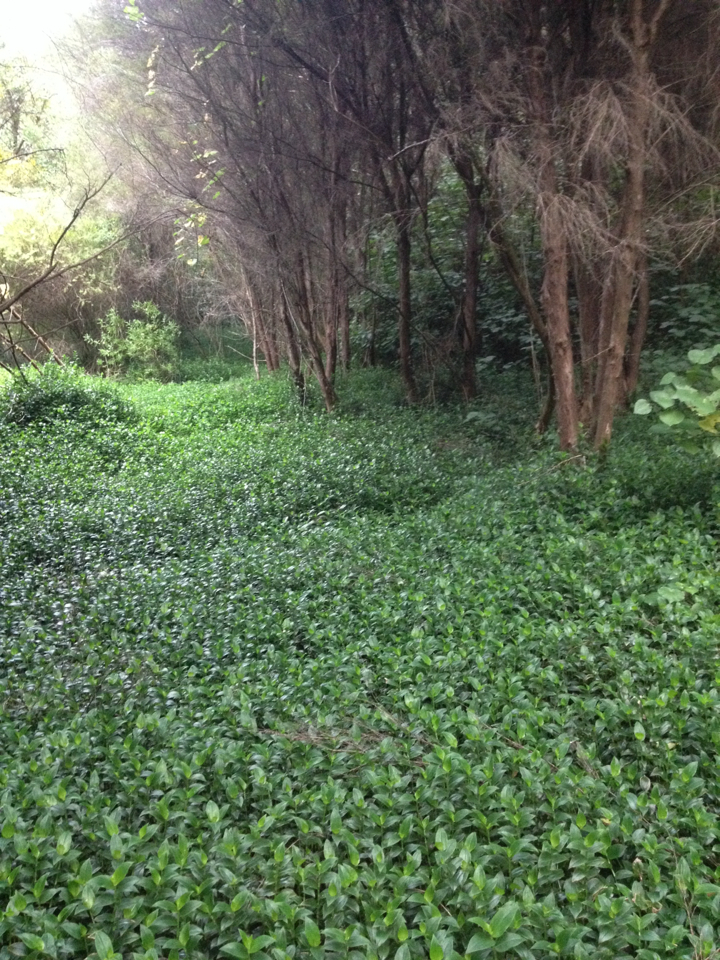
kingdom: Plantae
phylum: Tracheophyta
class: Liliopsida
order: Commelinales
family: Commelinaceae
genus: Tradescantia
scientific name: Tradescantia fluminensis
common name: Wandering-jew
